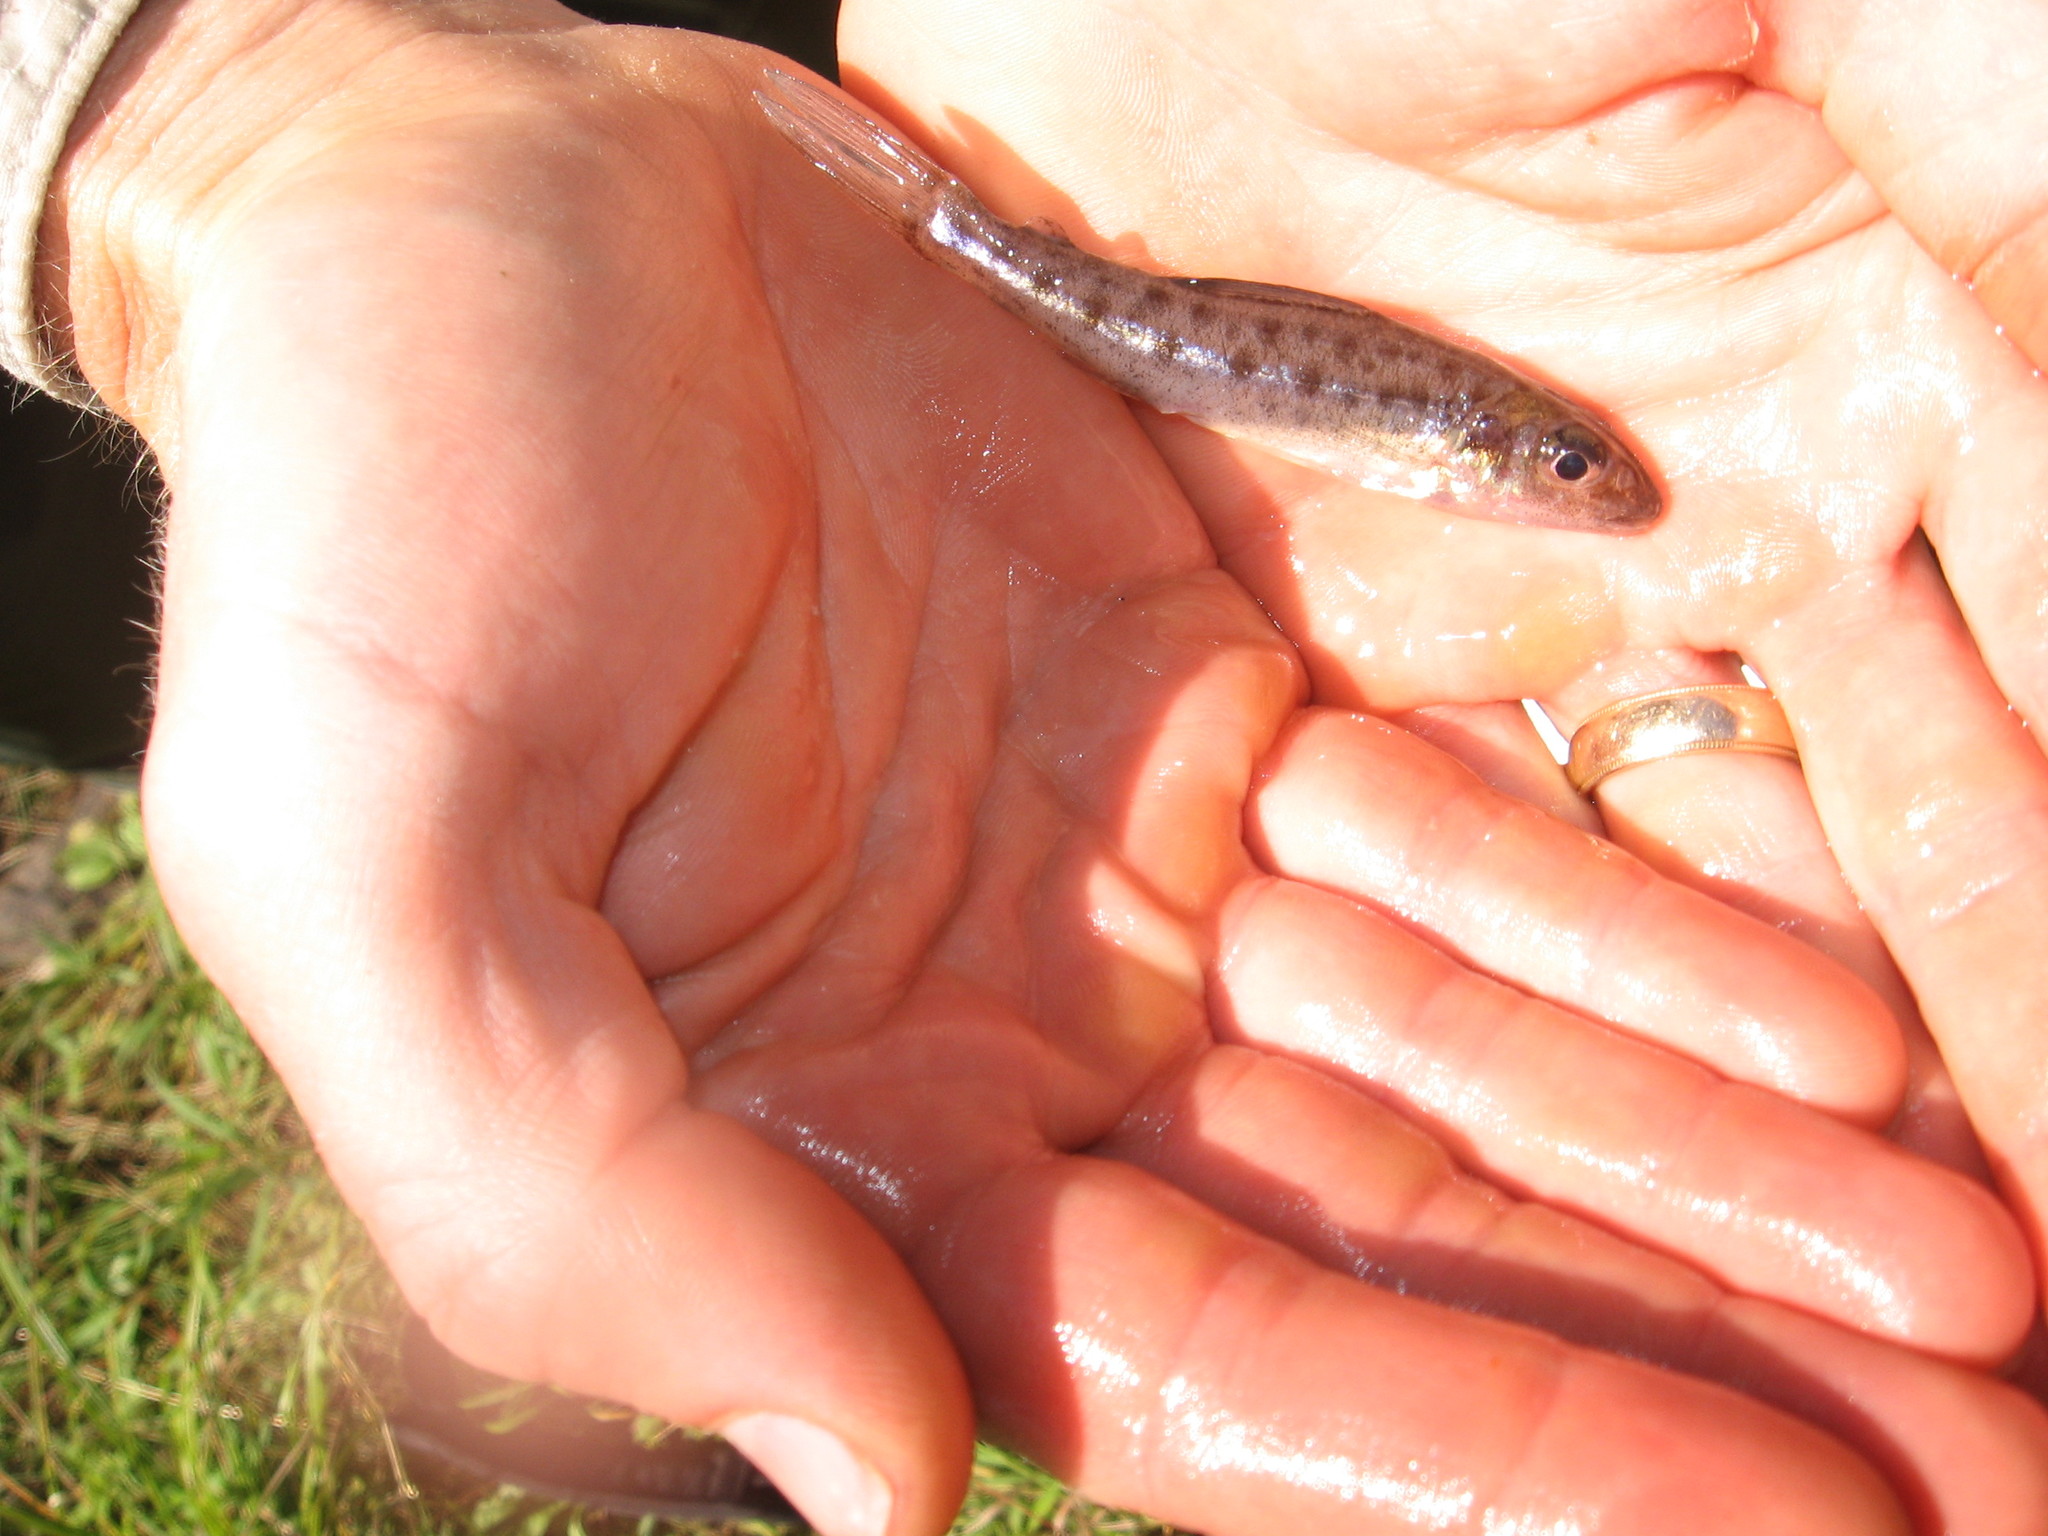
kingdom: Animalia
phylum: Chordata
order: Percopsiformes
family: Percopsidae
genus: Percopsis
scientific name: Percopsis omiscomaycus
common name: Trout-perch
